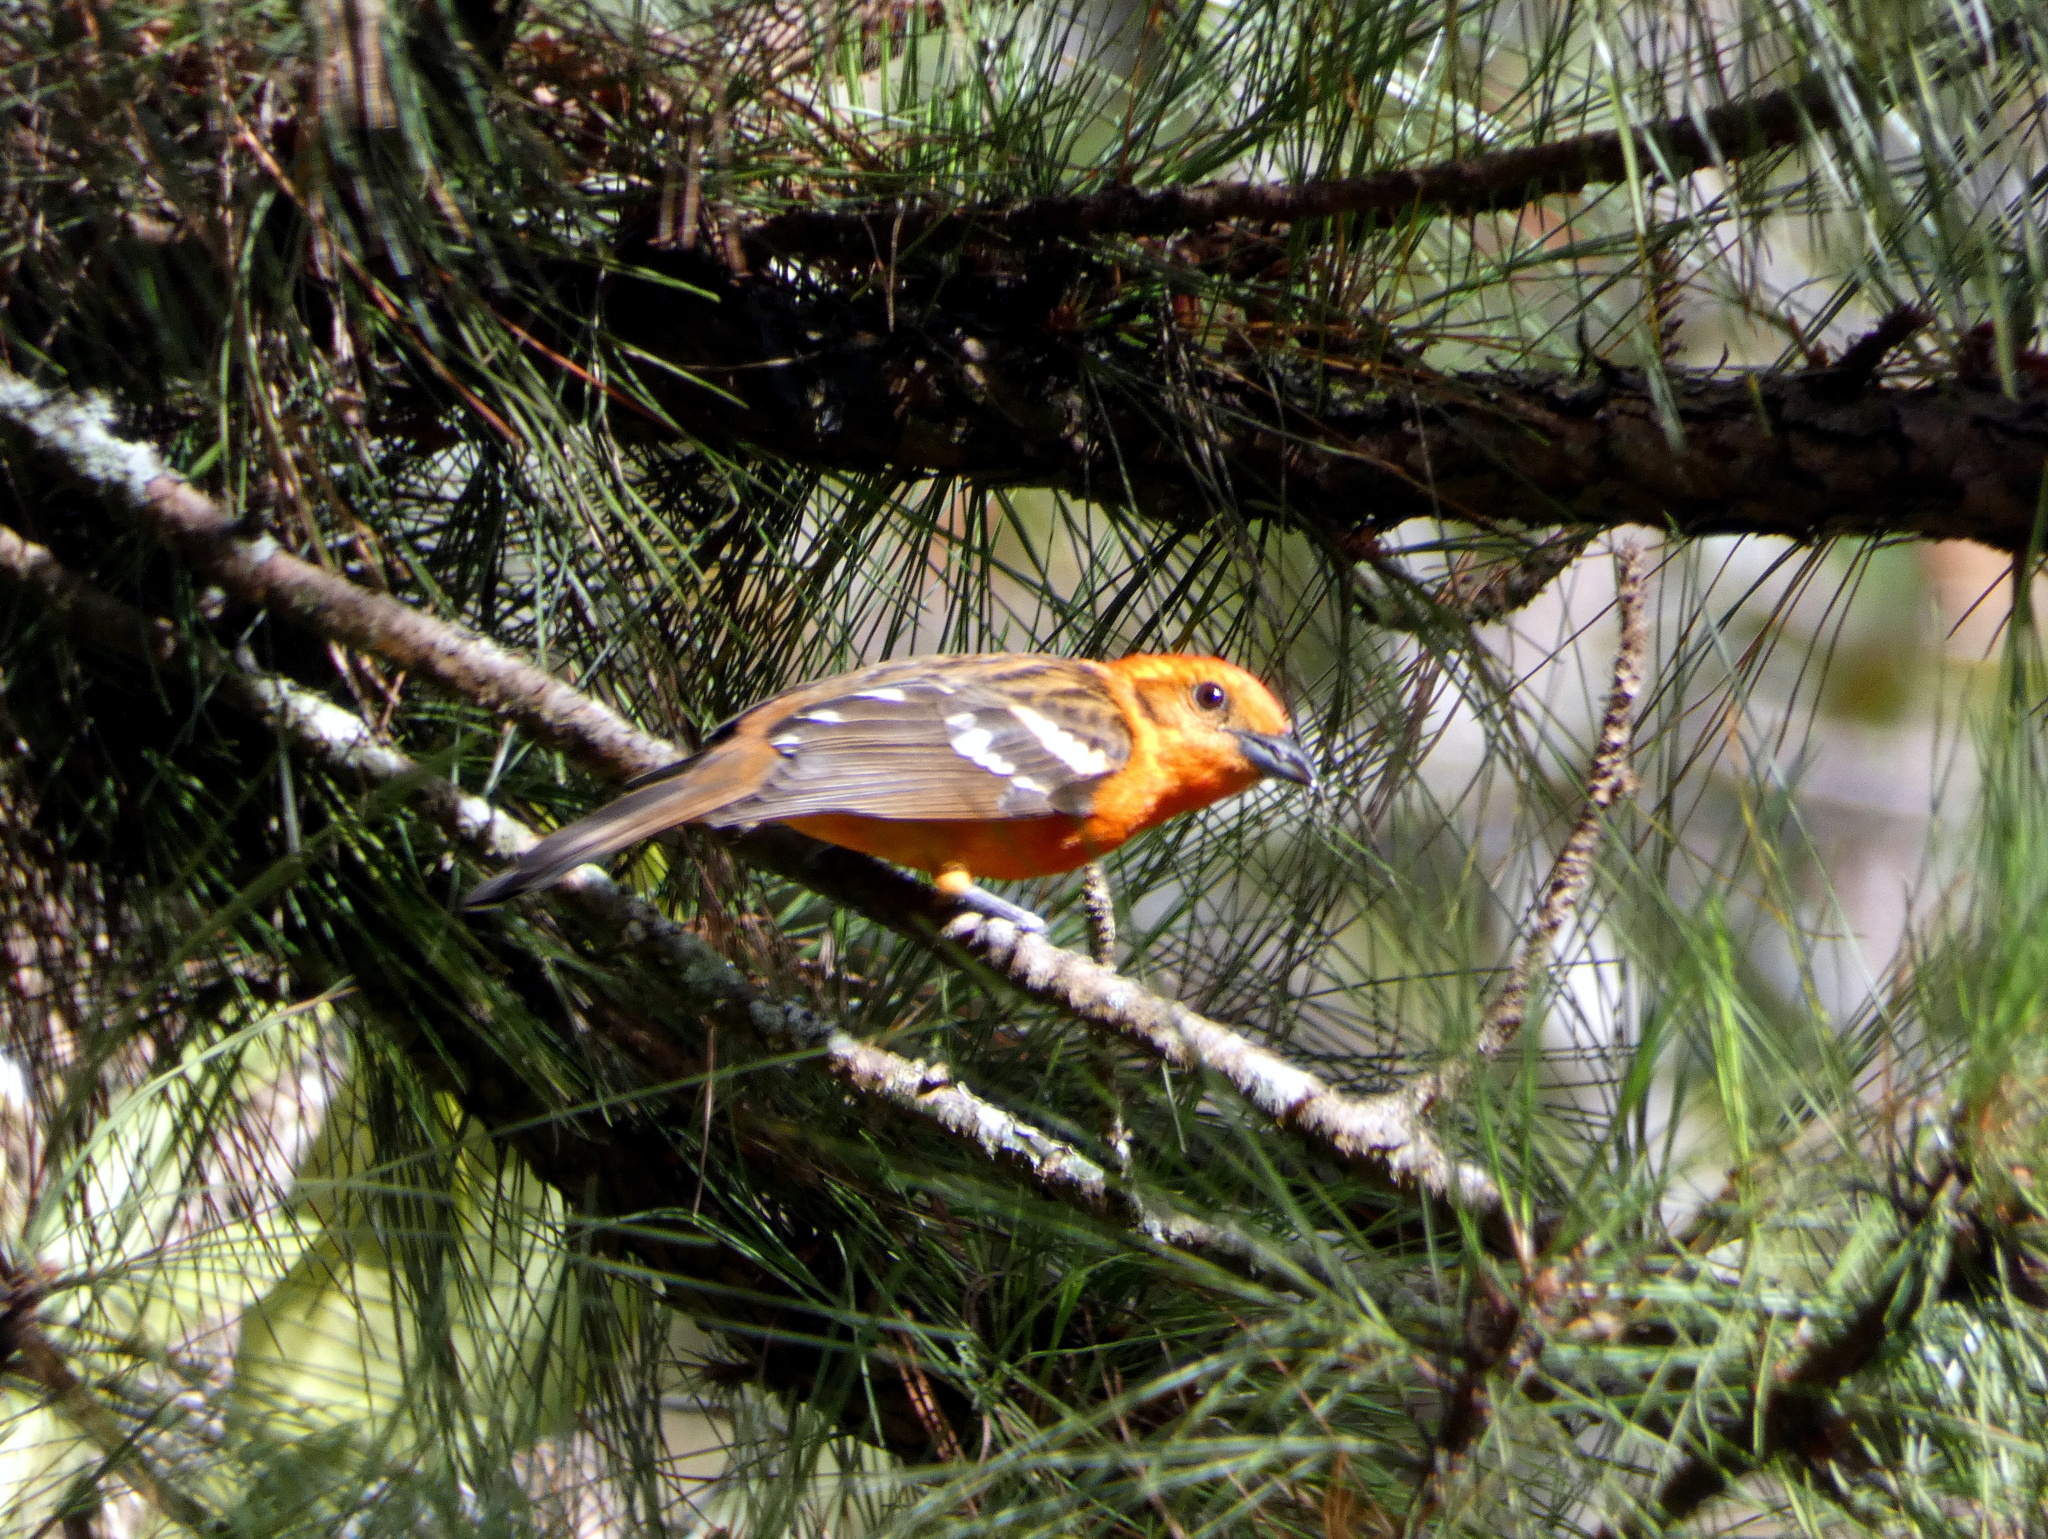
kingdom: Animalia
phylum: Chordata
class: Aves
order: Passeriformes
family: Cardinalidae
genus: Piranga
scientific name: Piranga bidentata
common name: Flame-colored tanager
